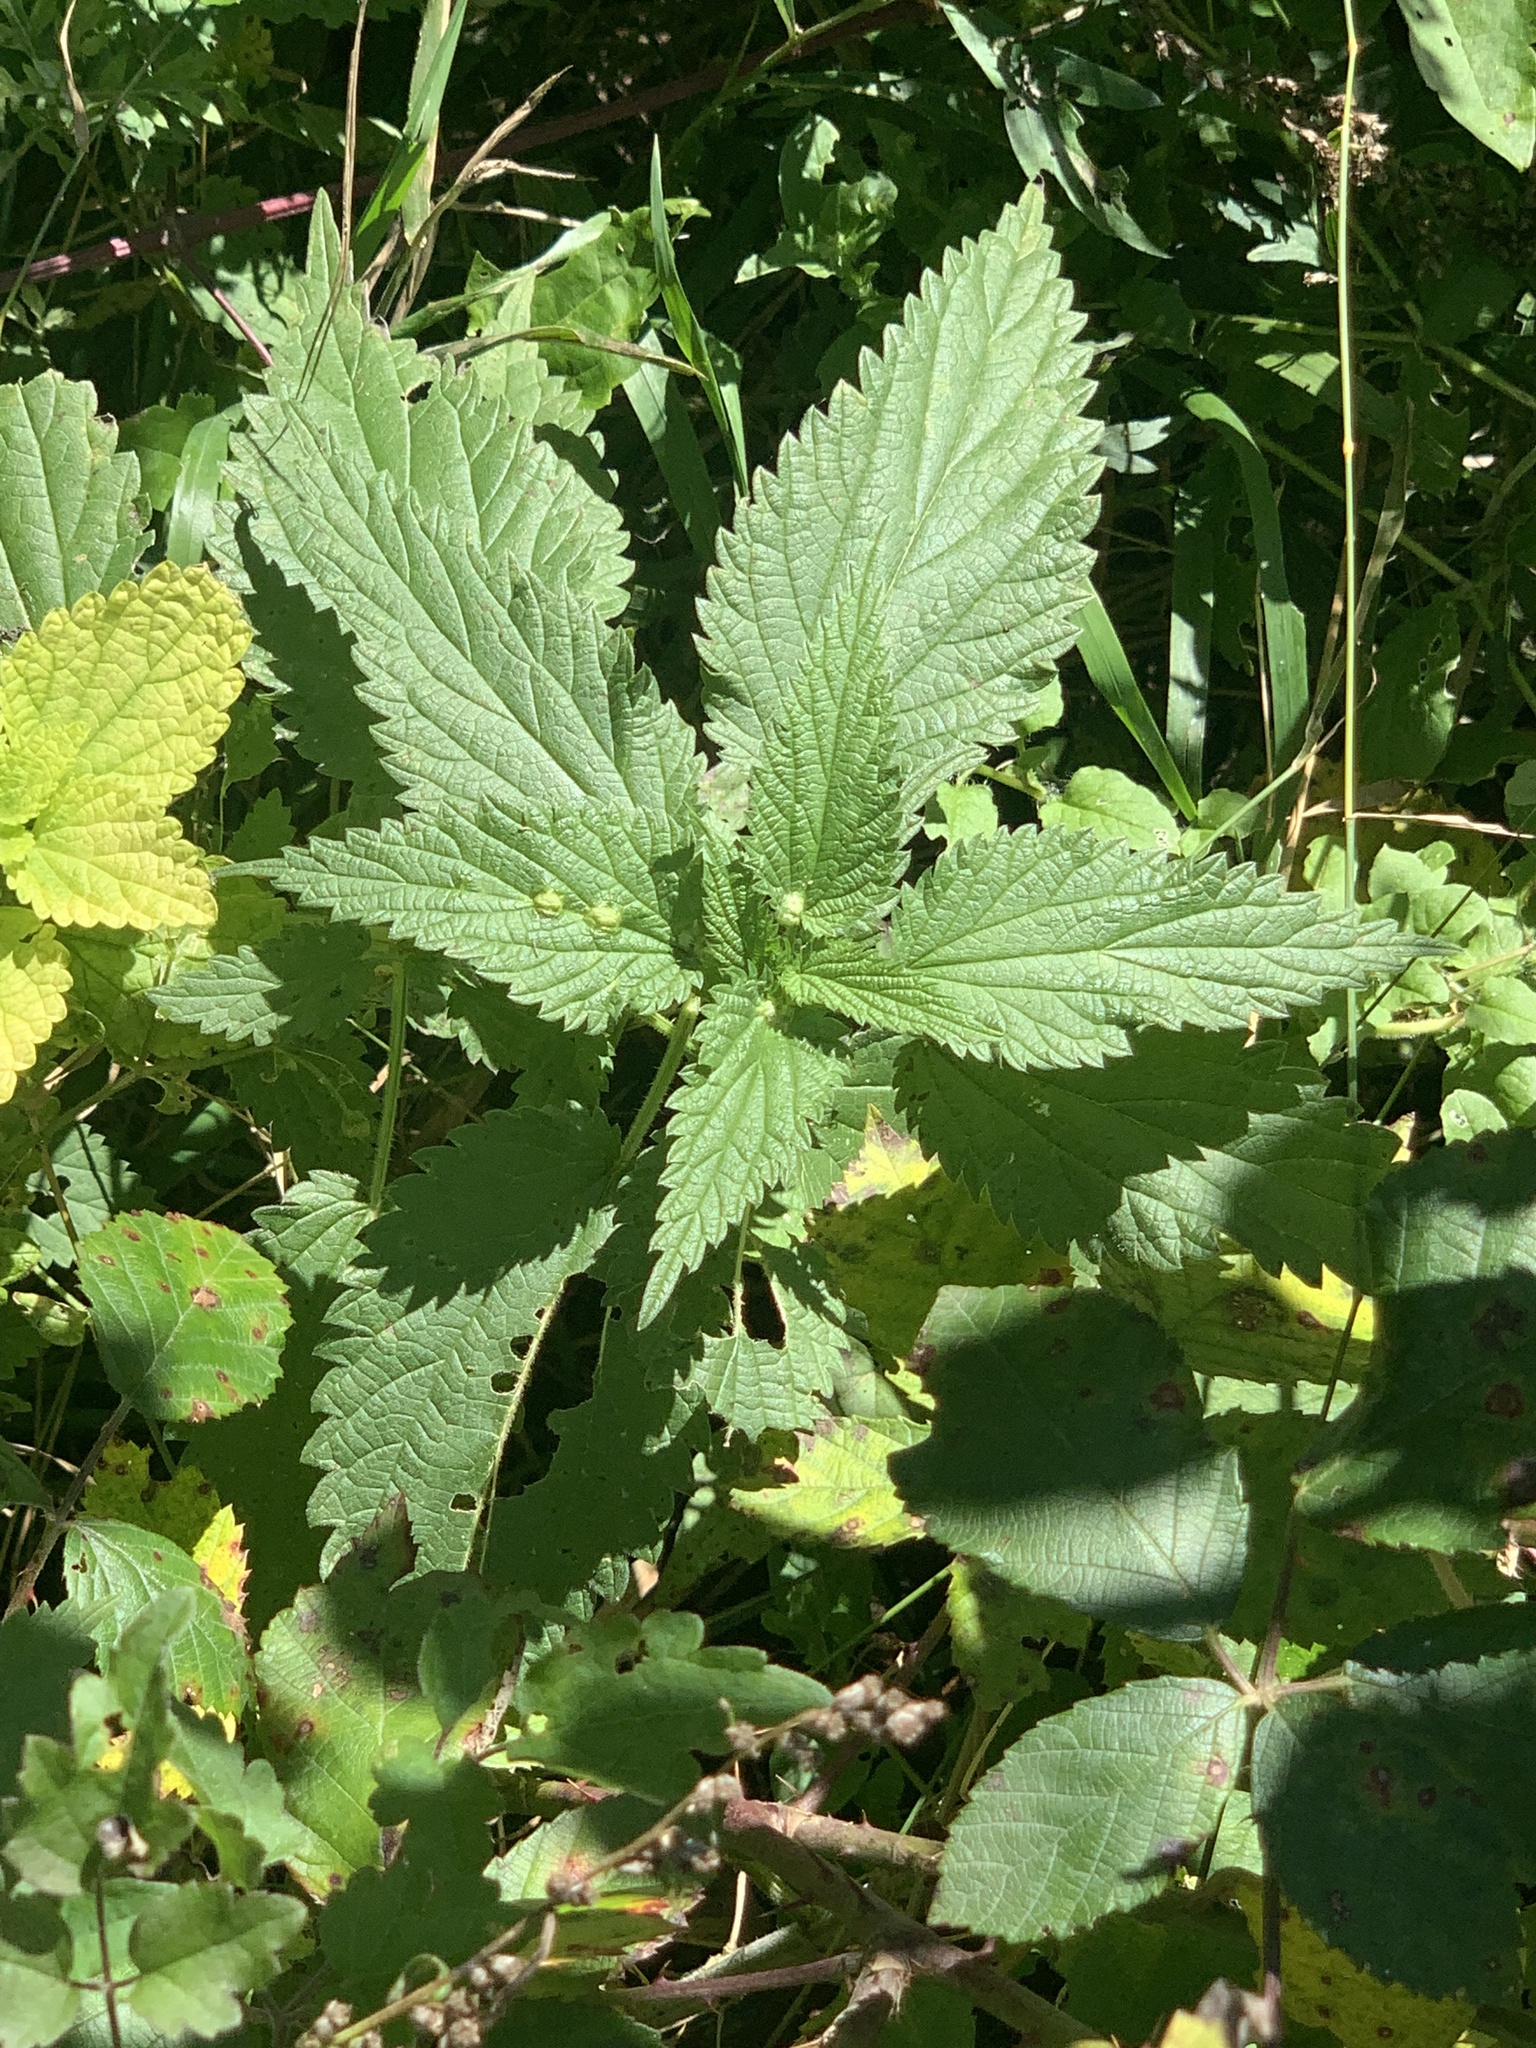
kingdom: Plantae
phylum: Tracheophyta
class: Magnoliopsida
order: Rosales
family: Urticaceae
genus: Urtica
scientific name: Urtica dioica
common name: Common nettle
